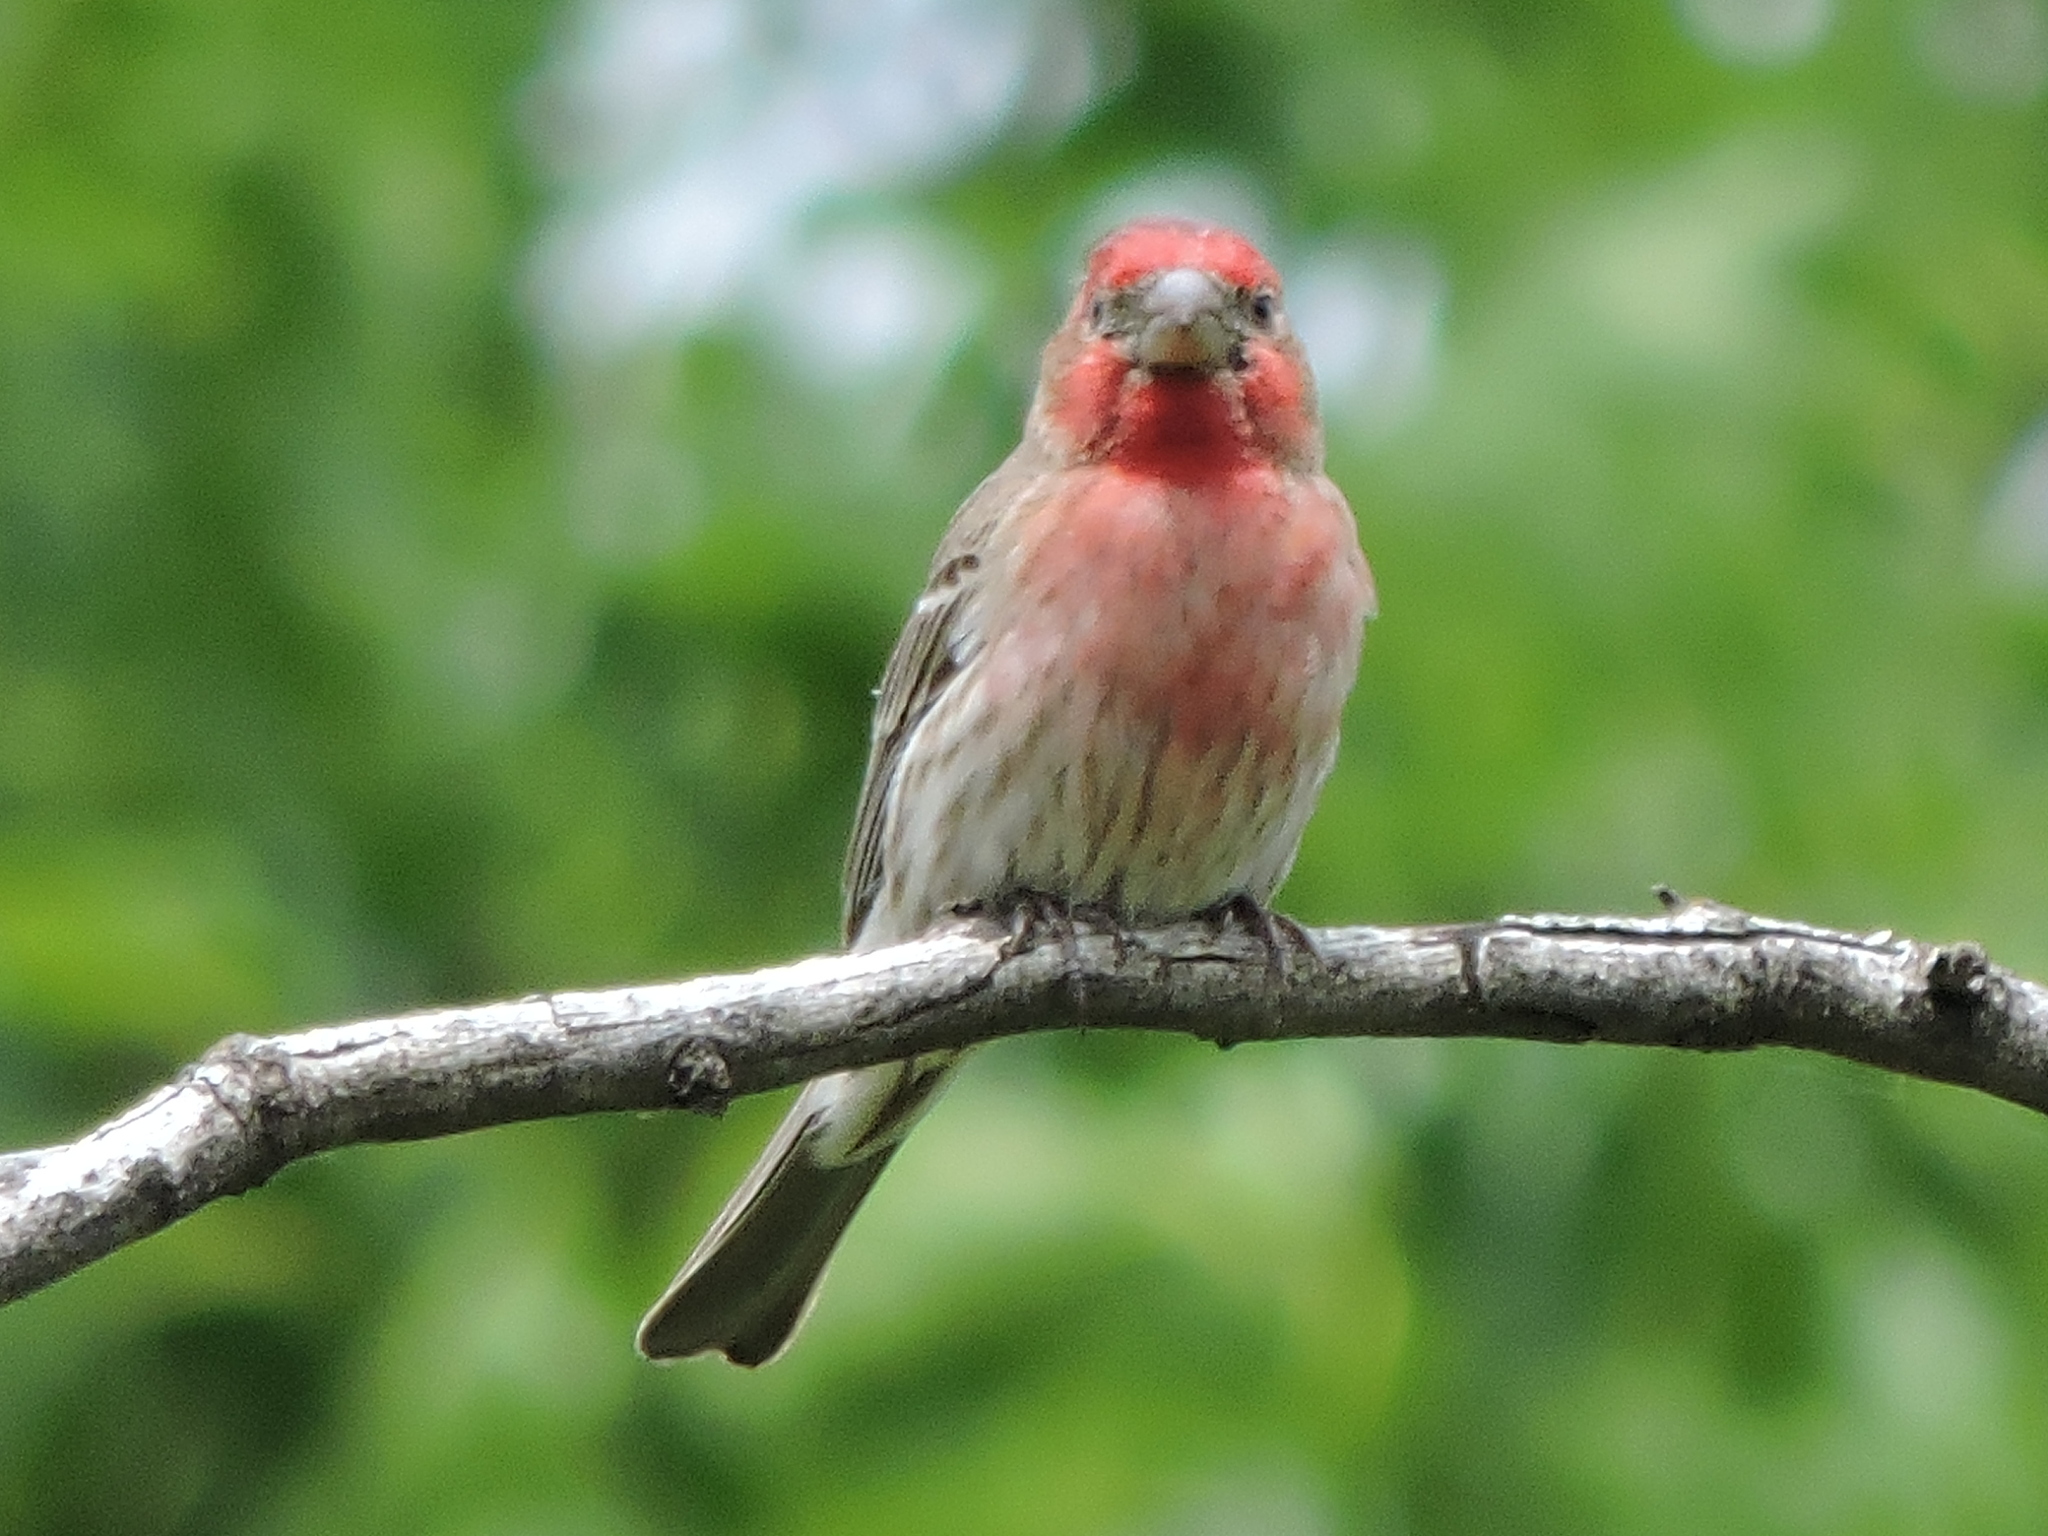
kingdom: Animalia
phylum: Chordata
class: Aves
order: Passeriformes
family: Fringillidae
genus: Haemorhous
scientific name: Haemorhous mexicanus
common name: House finch
